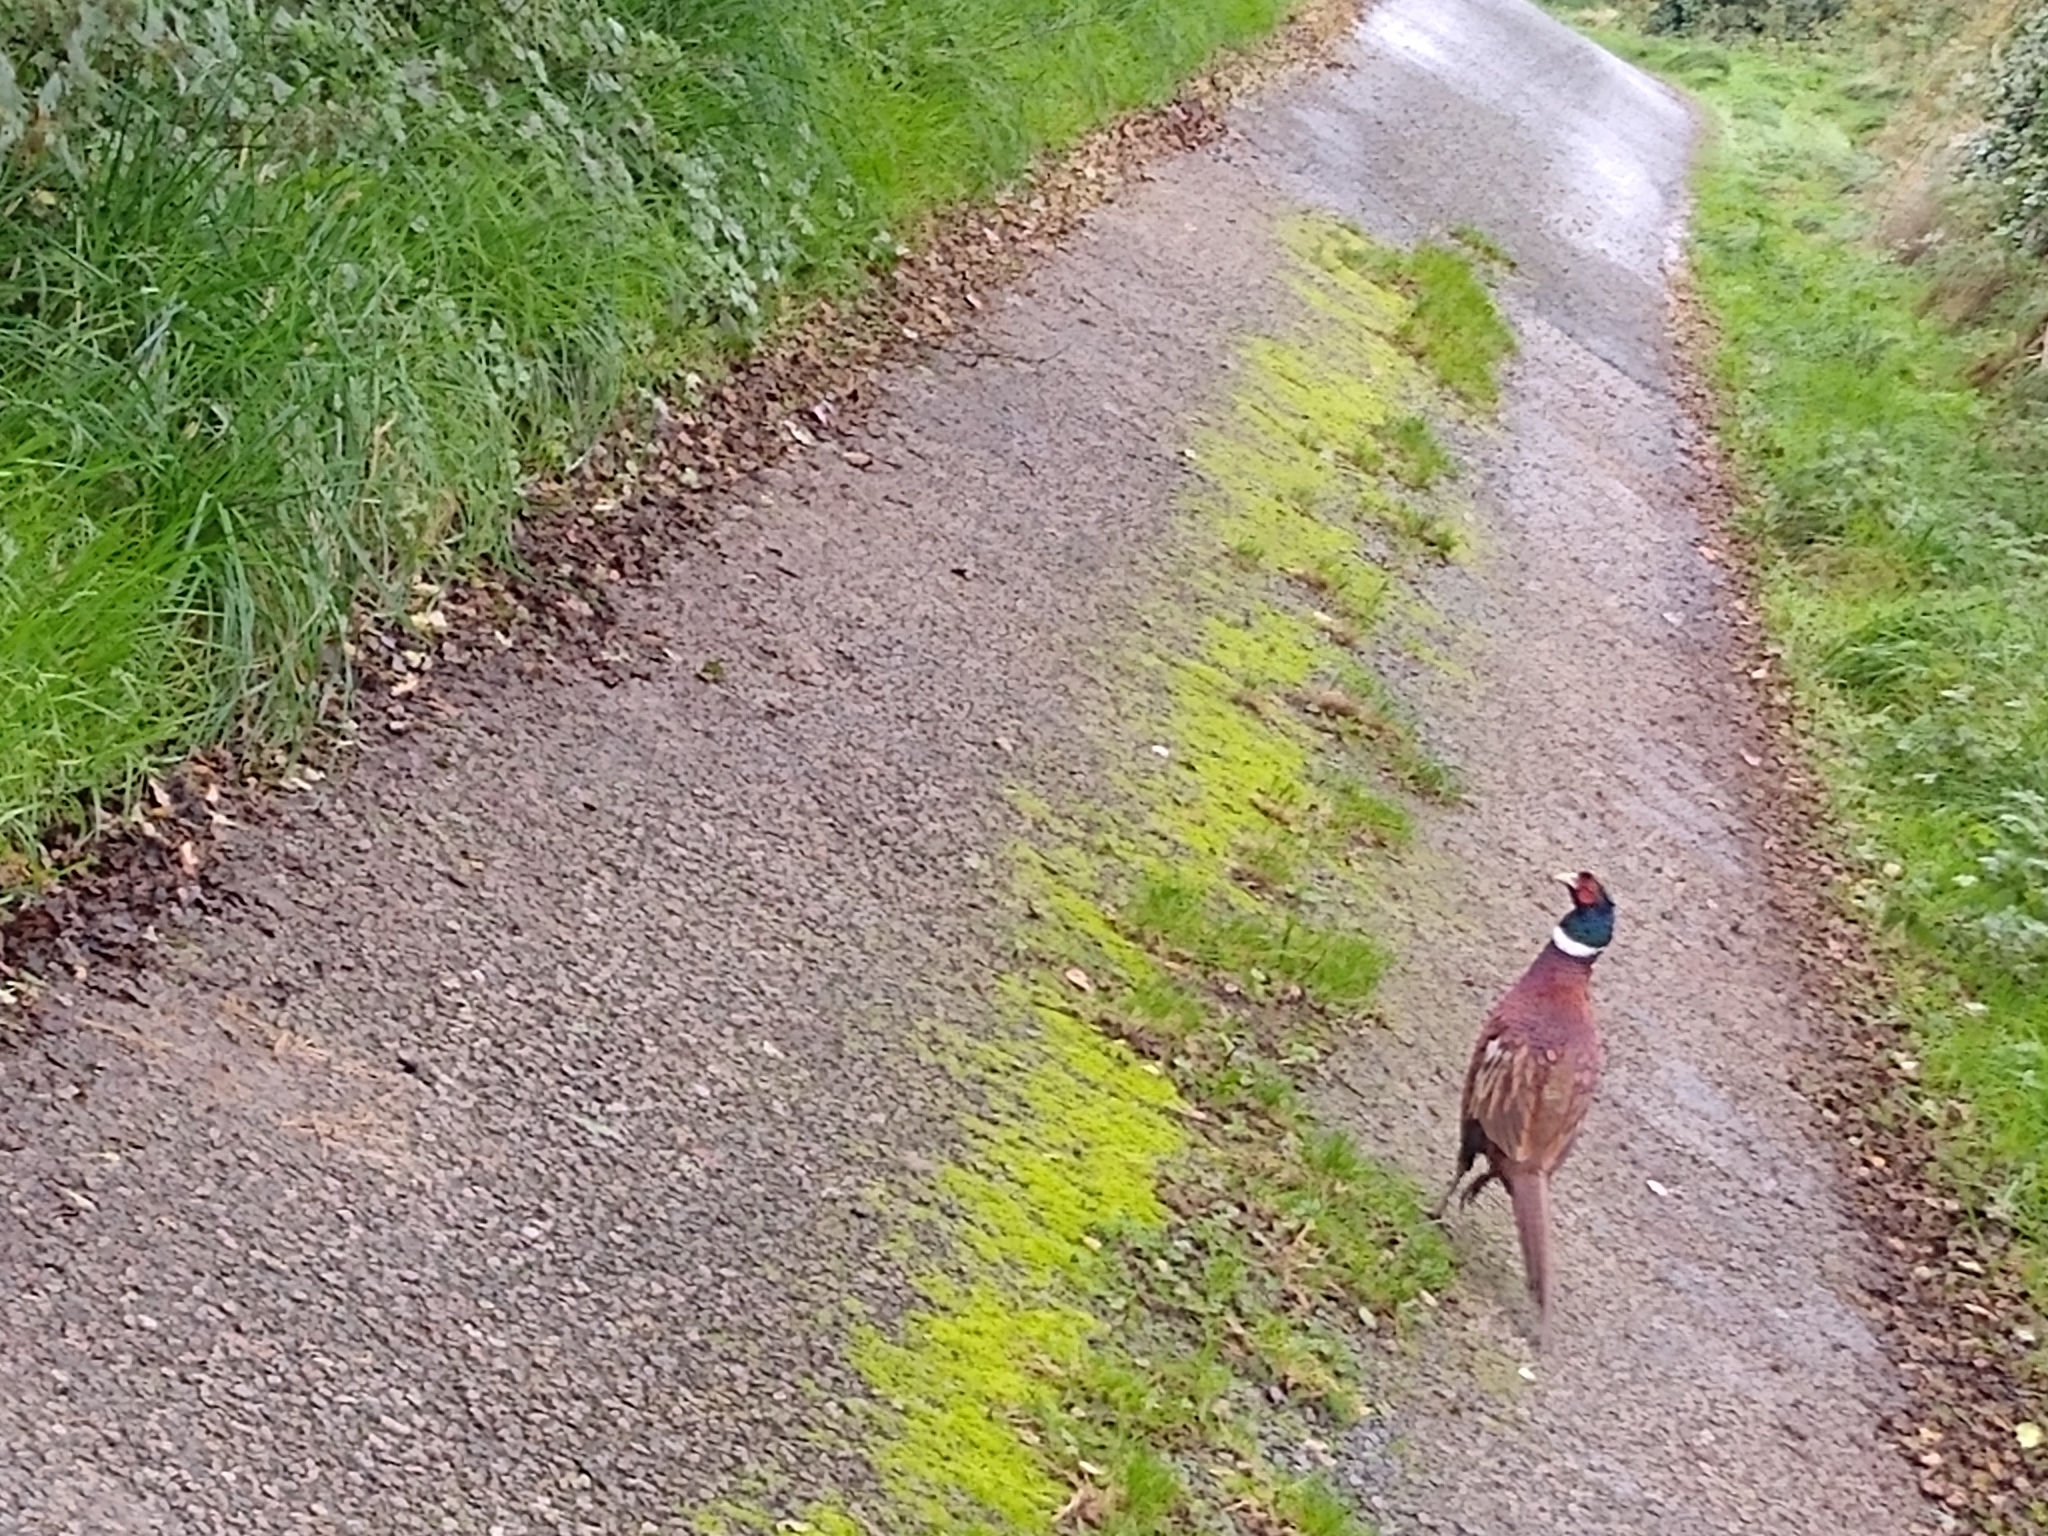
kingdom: Animalia
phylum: Chordata
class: Aves
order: Galliformes
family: Phasianidae
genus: Phasianus
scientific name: Phasianus colchicus
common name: Common pheasant
